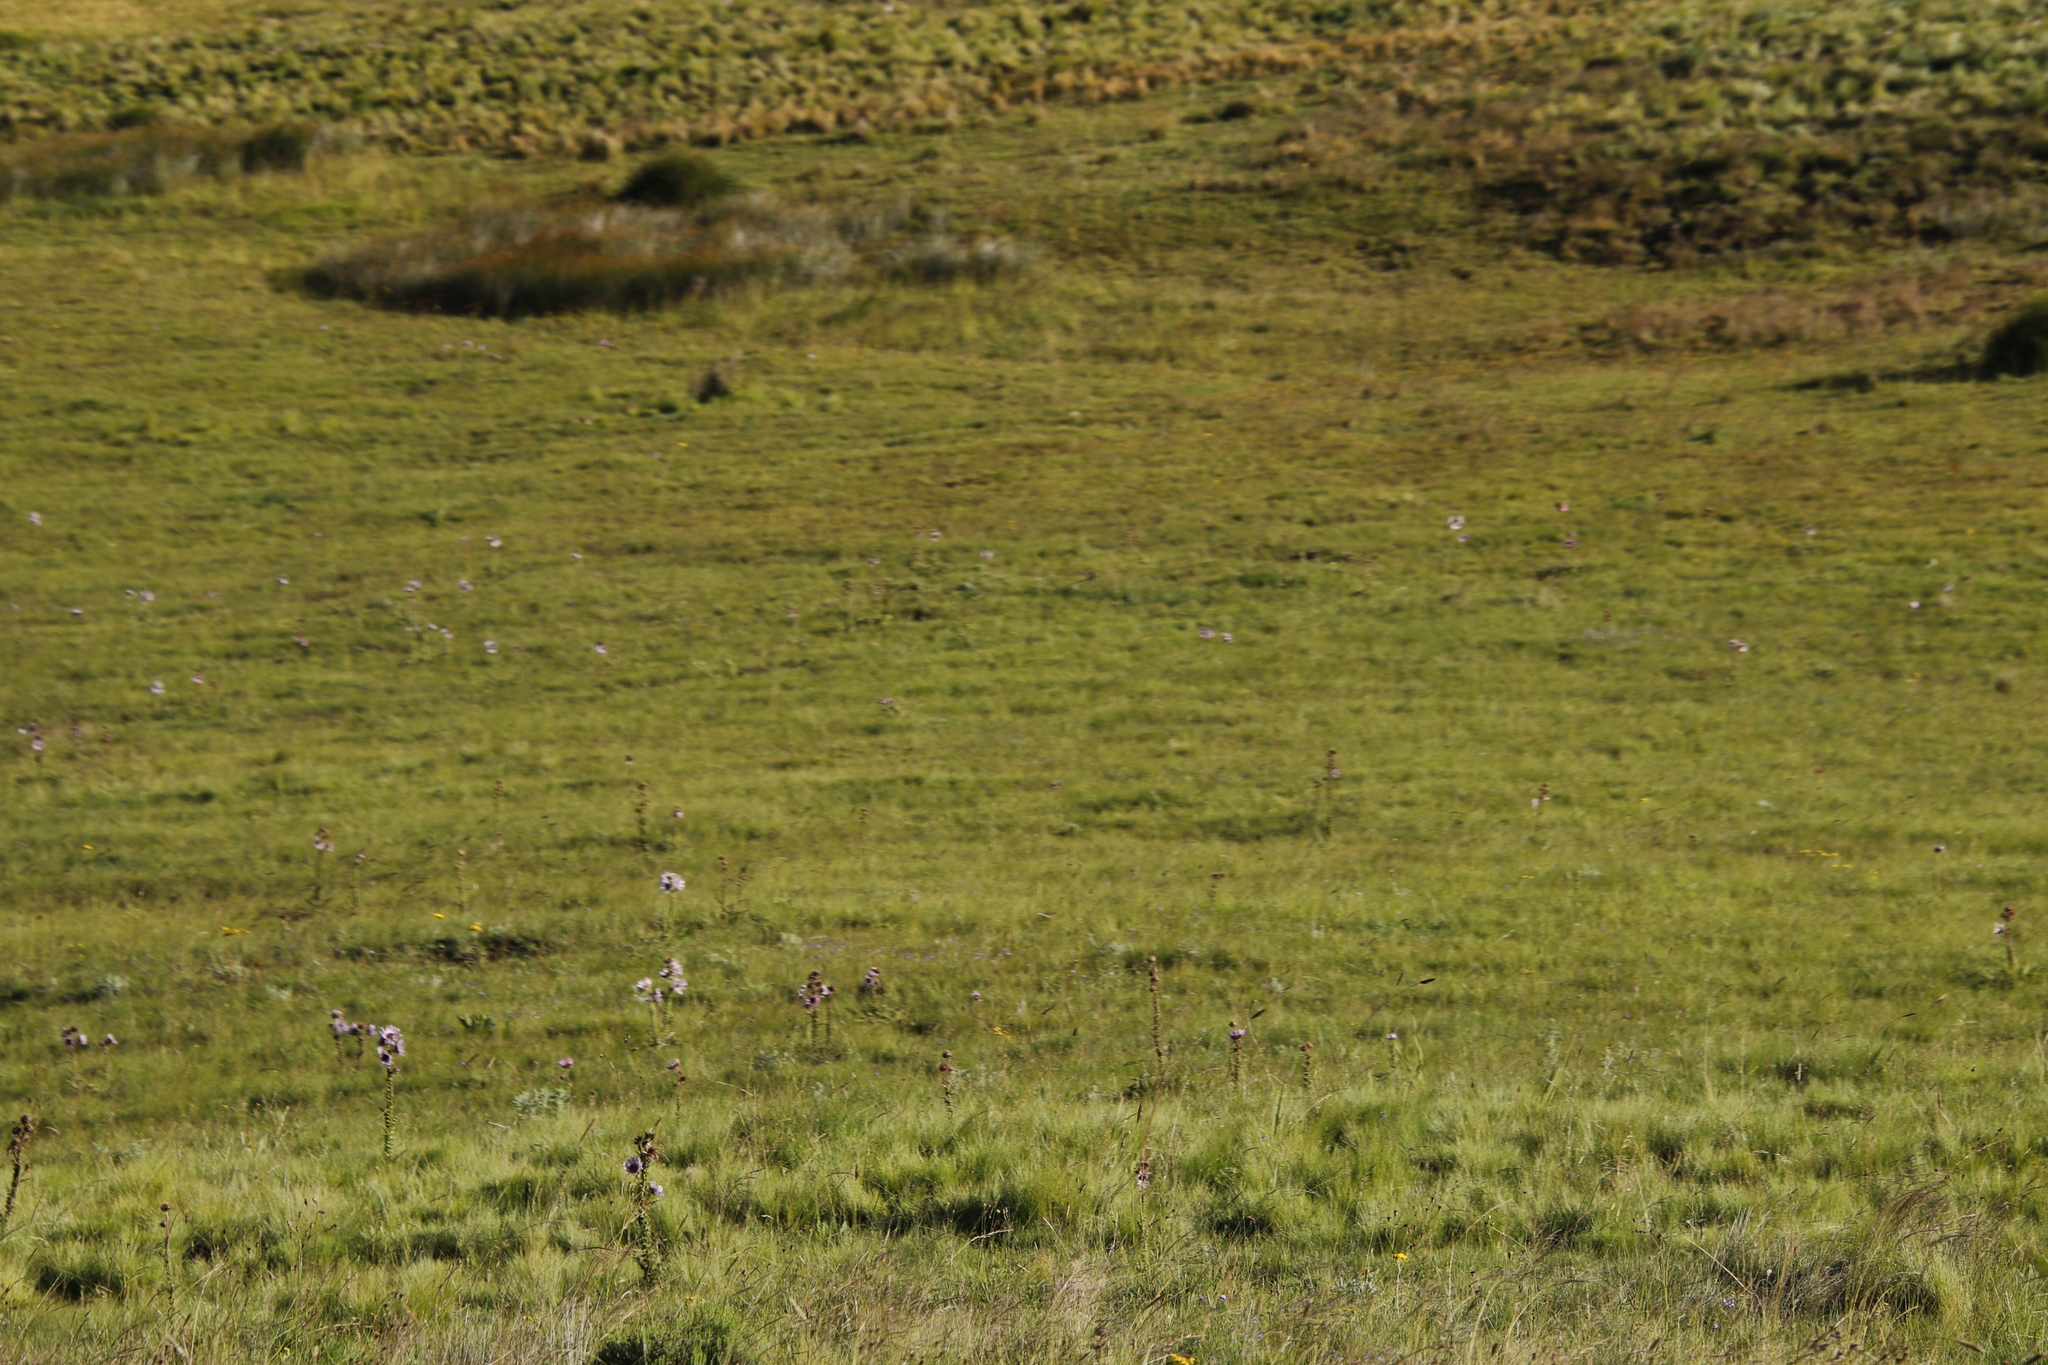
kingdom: Plantae
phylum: Tracheophyta
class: Magnoliopsida
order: Asterales
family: Asteraceae
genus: Berkheya
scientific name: Berkheya purpurea
